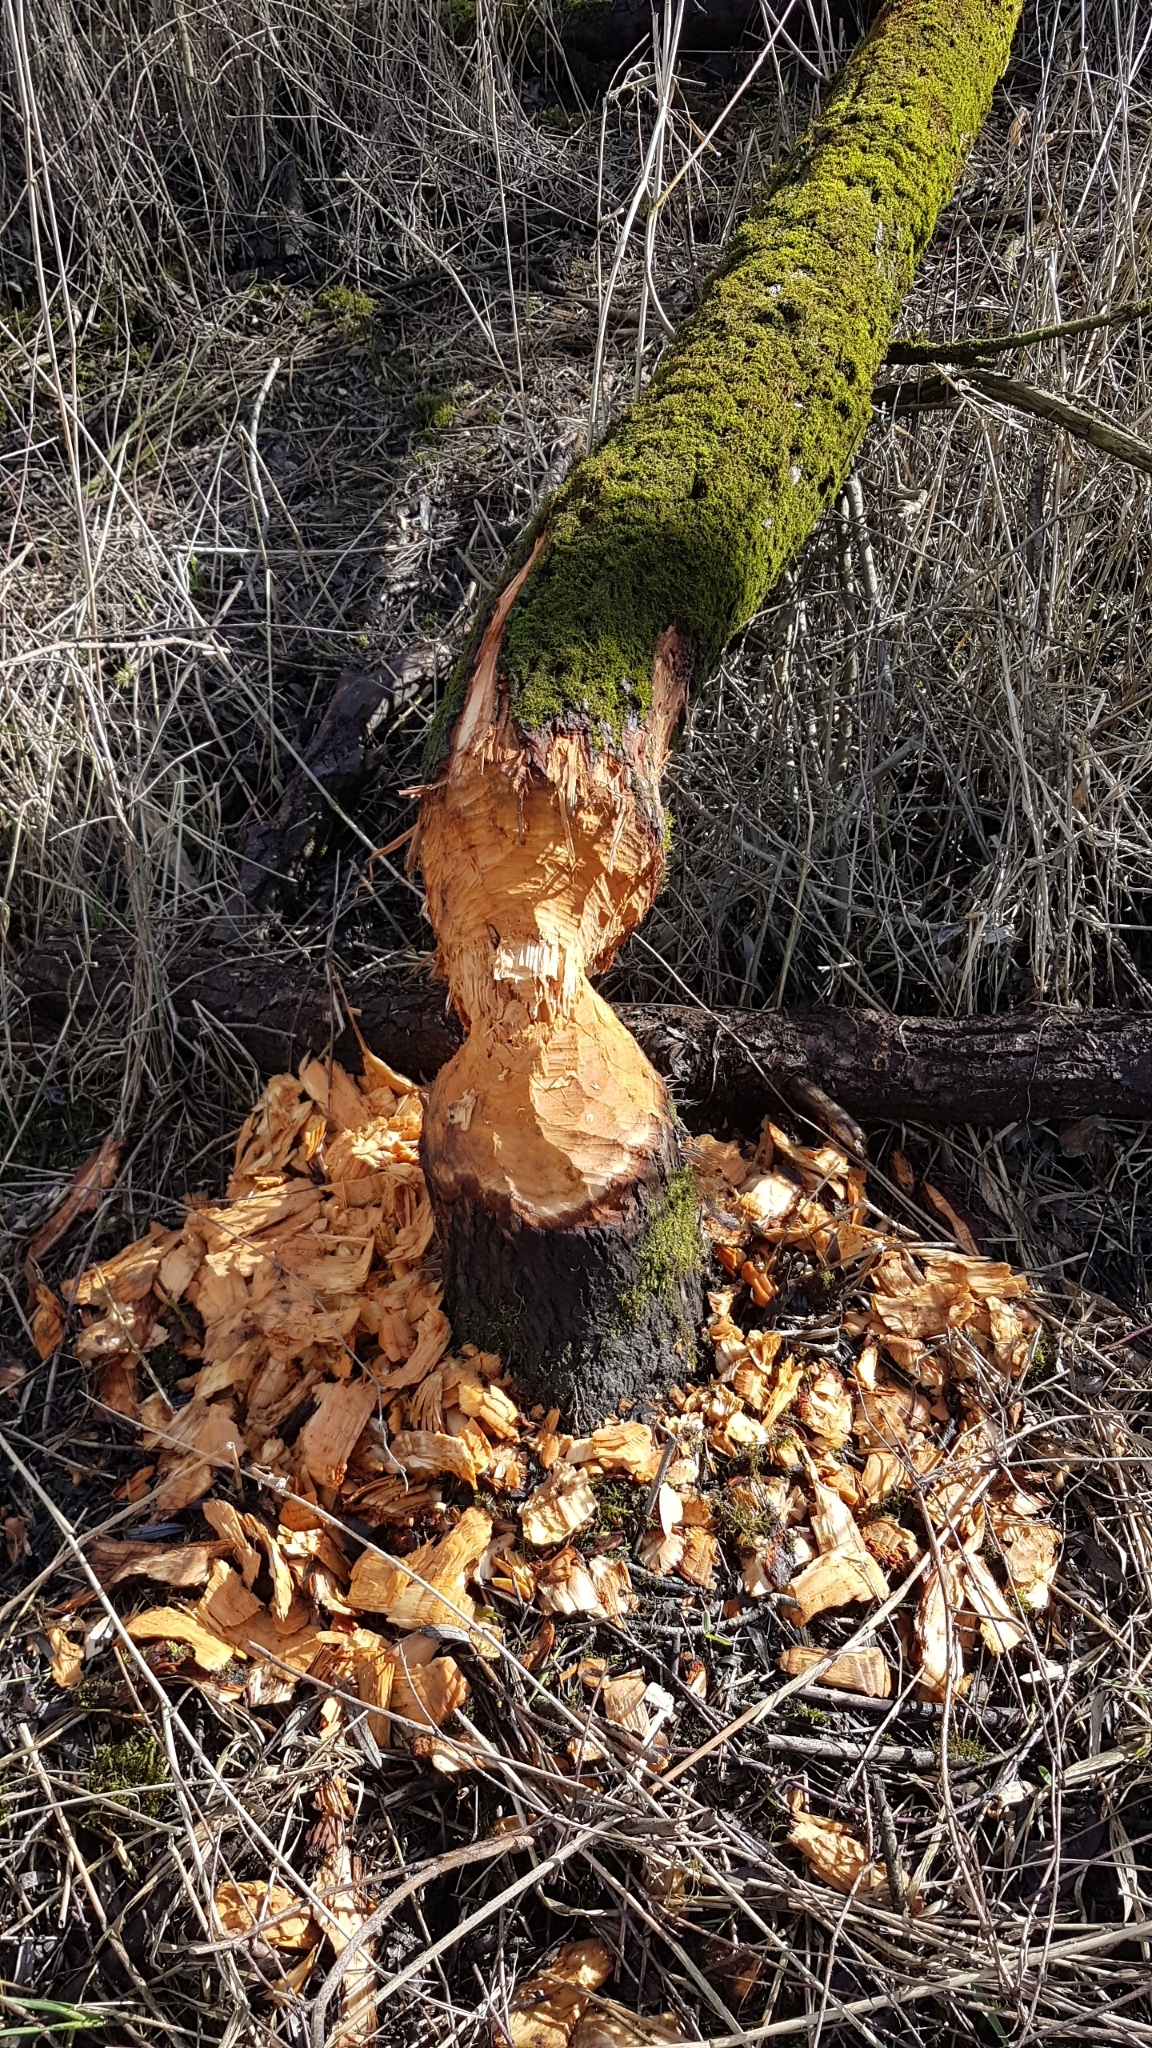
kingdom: Animalia
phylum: Chordata
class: Mammalia
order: Rodentia
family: Castoridae
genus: Castor
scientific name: Castor fiber
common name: Eurasian beaver
